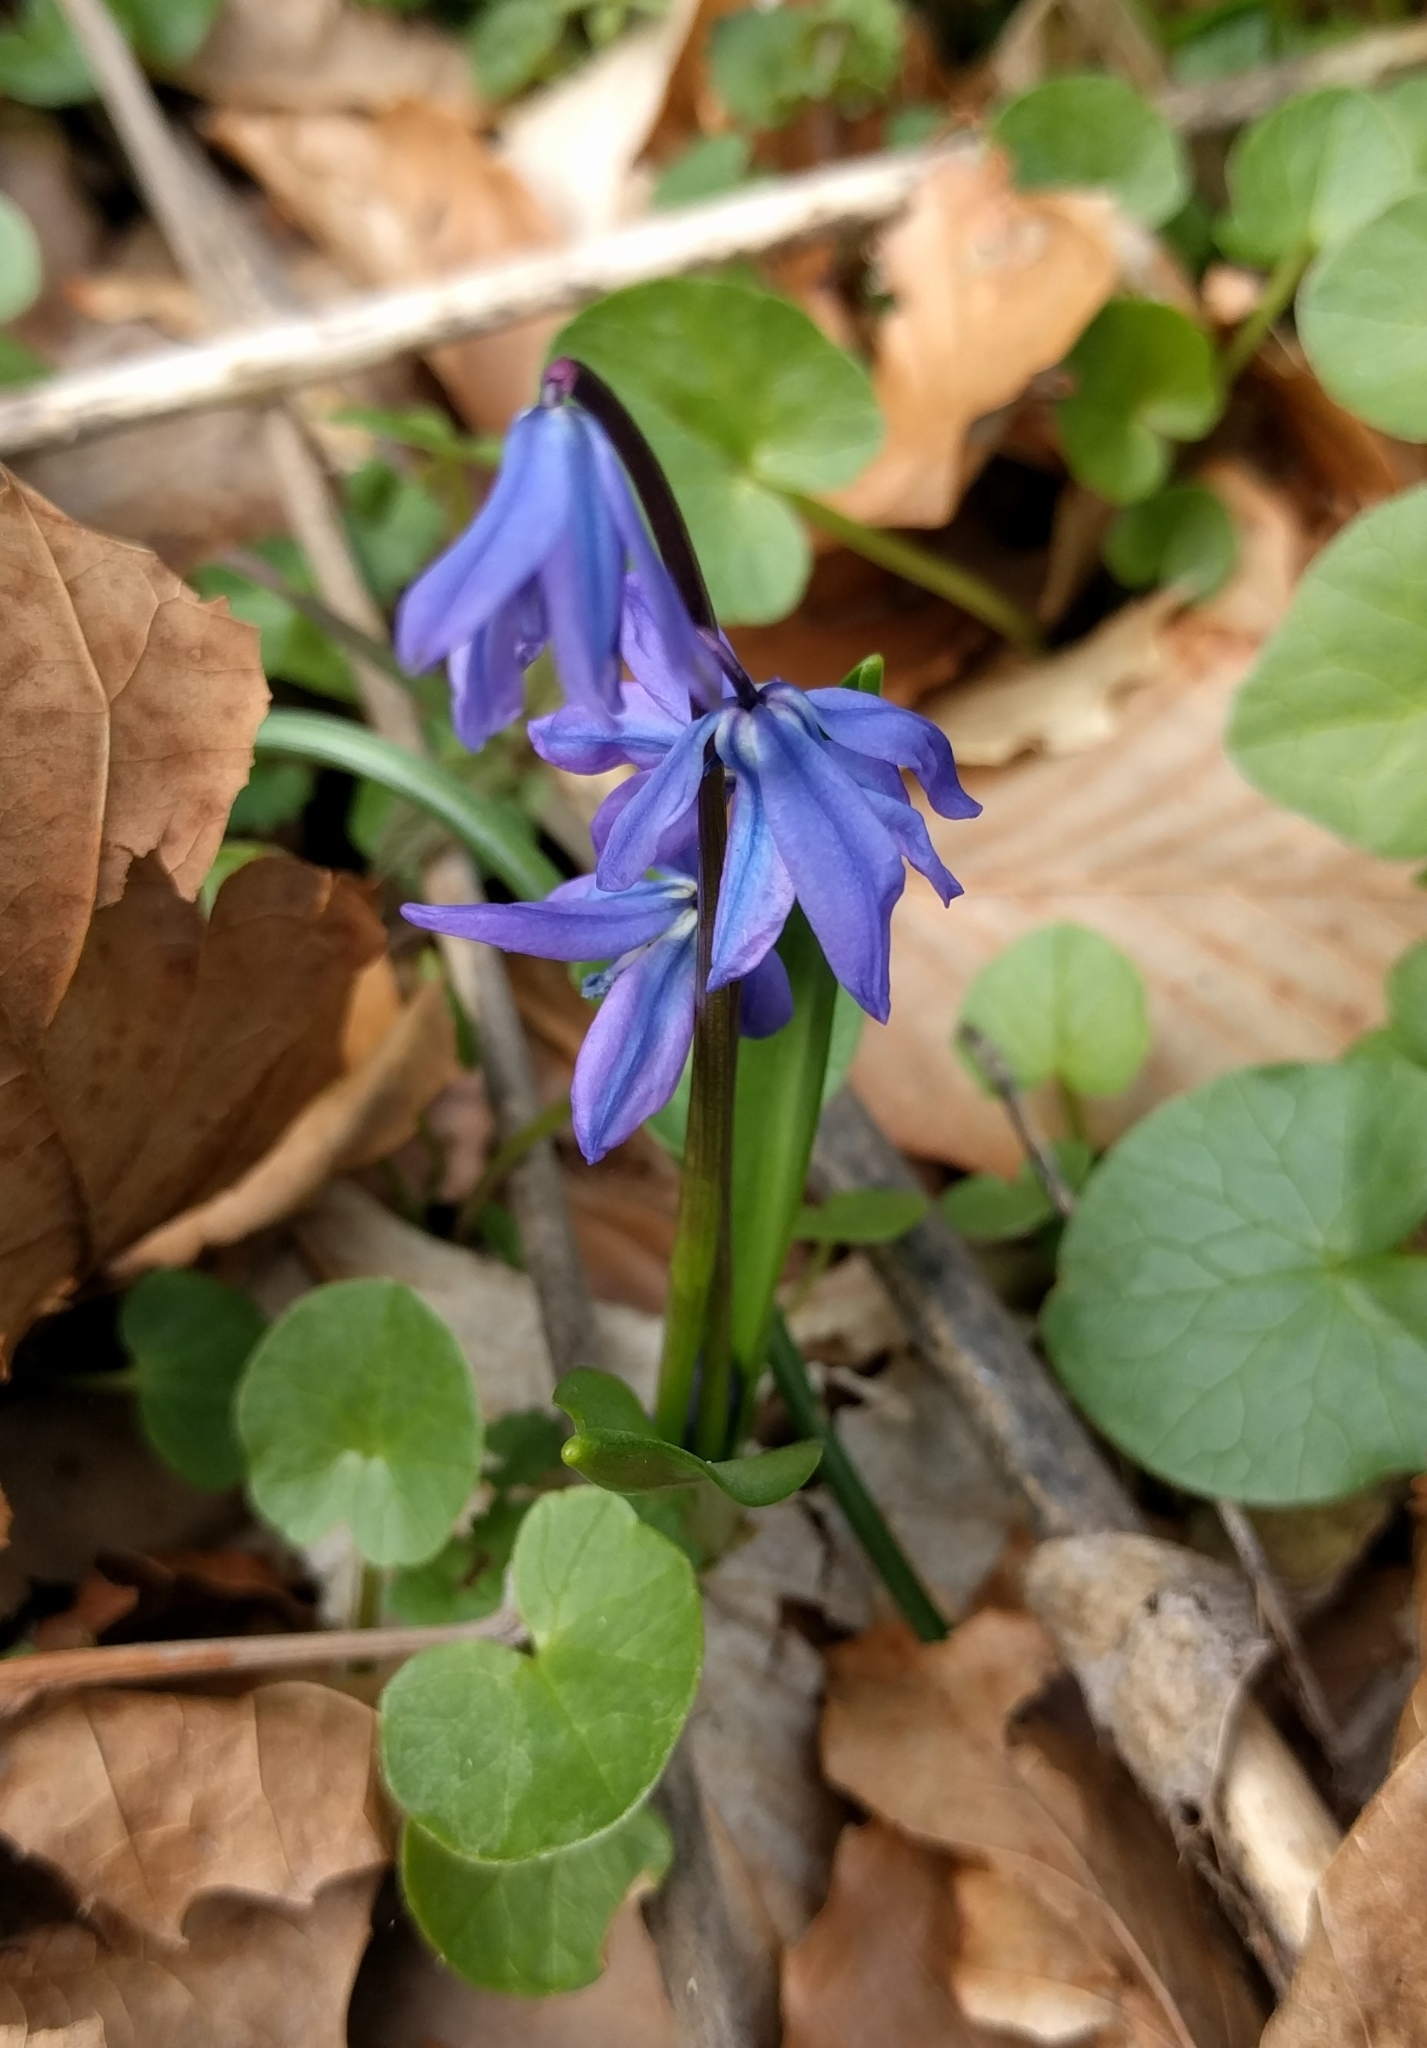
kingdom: Plantae
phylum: Tracheophyta
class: Liliopsida
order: Asparagales
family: Asparagaceae
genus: Scilla
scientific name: Scilla siberica
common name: Siberian squill
